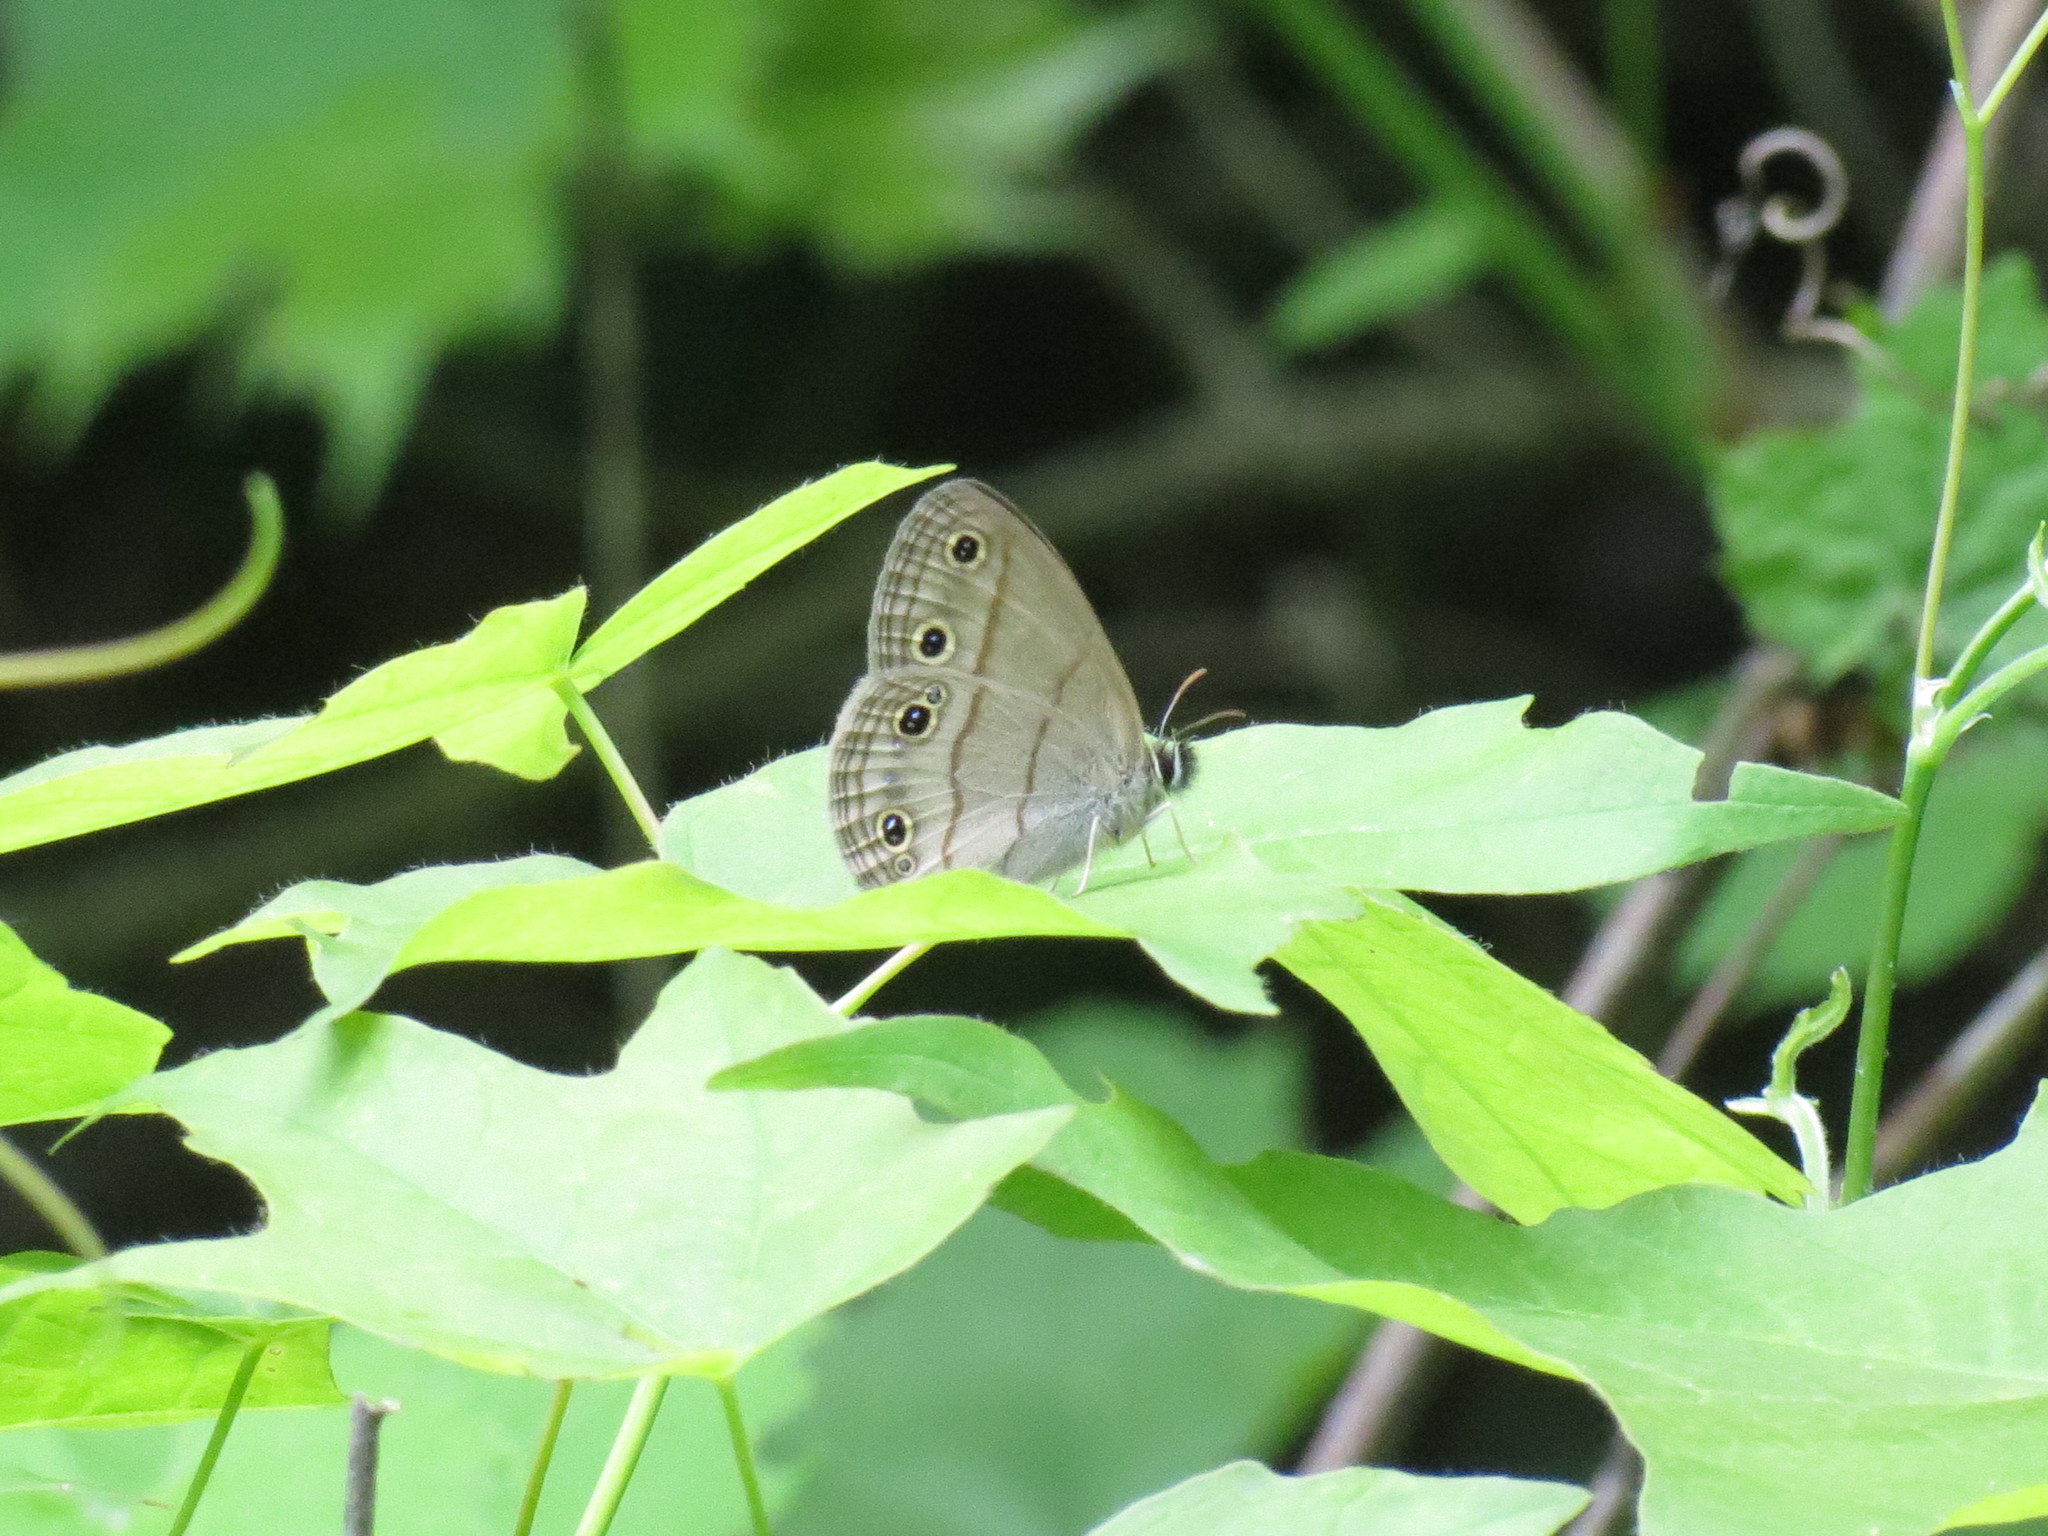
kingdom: Animalia
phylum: Arthropoda
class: Insecta
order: Lepidoptera
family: Nymphalidae
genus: Euptychia
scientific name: Euptychia cymela
